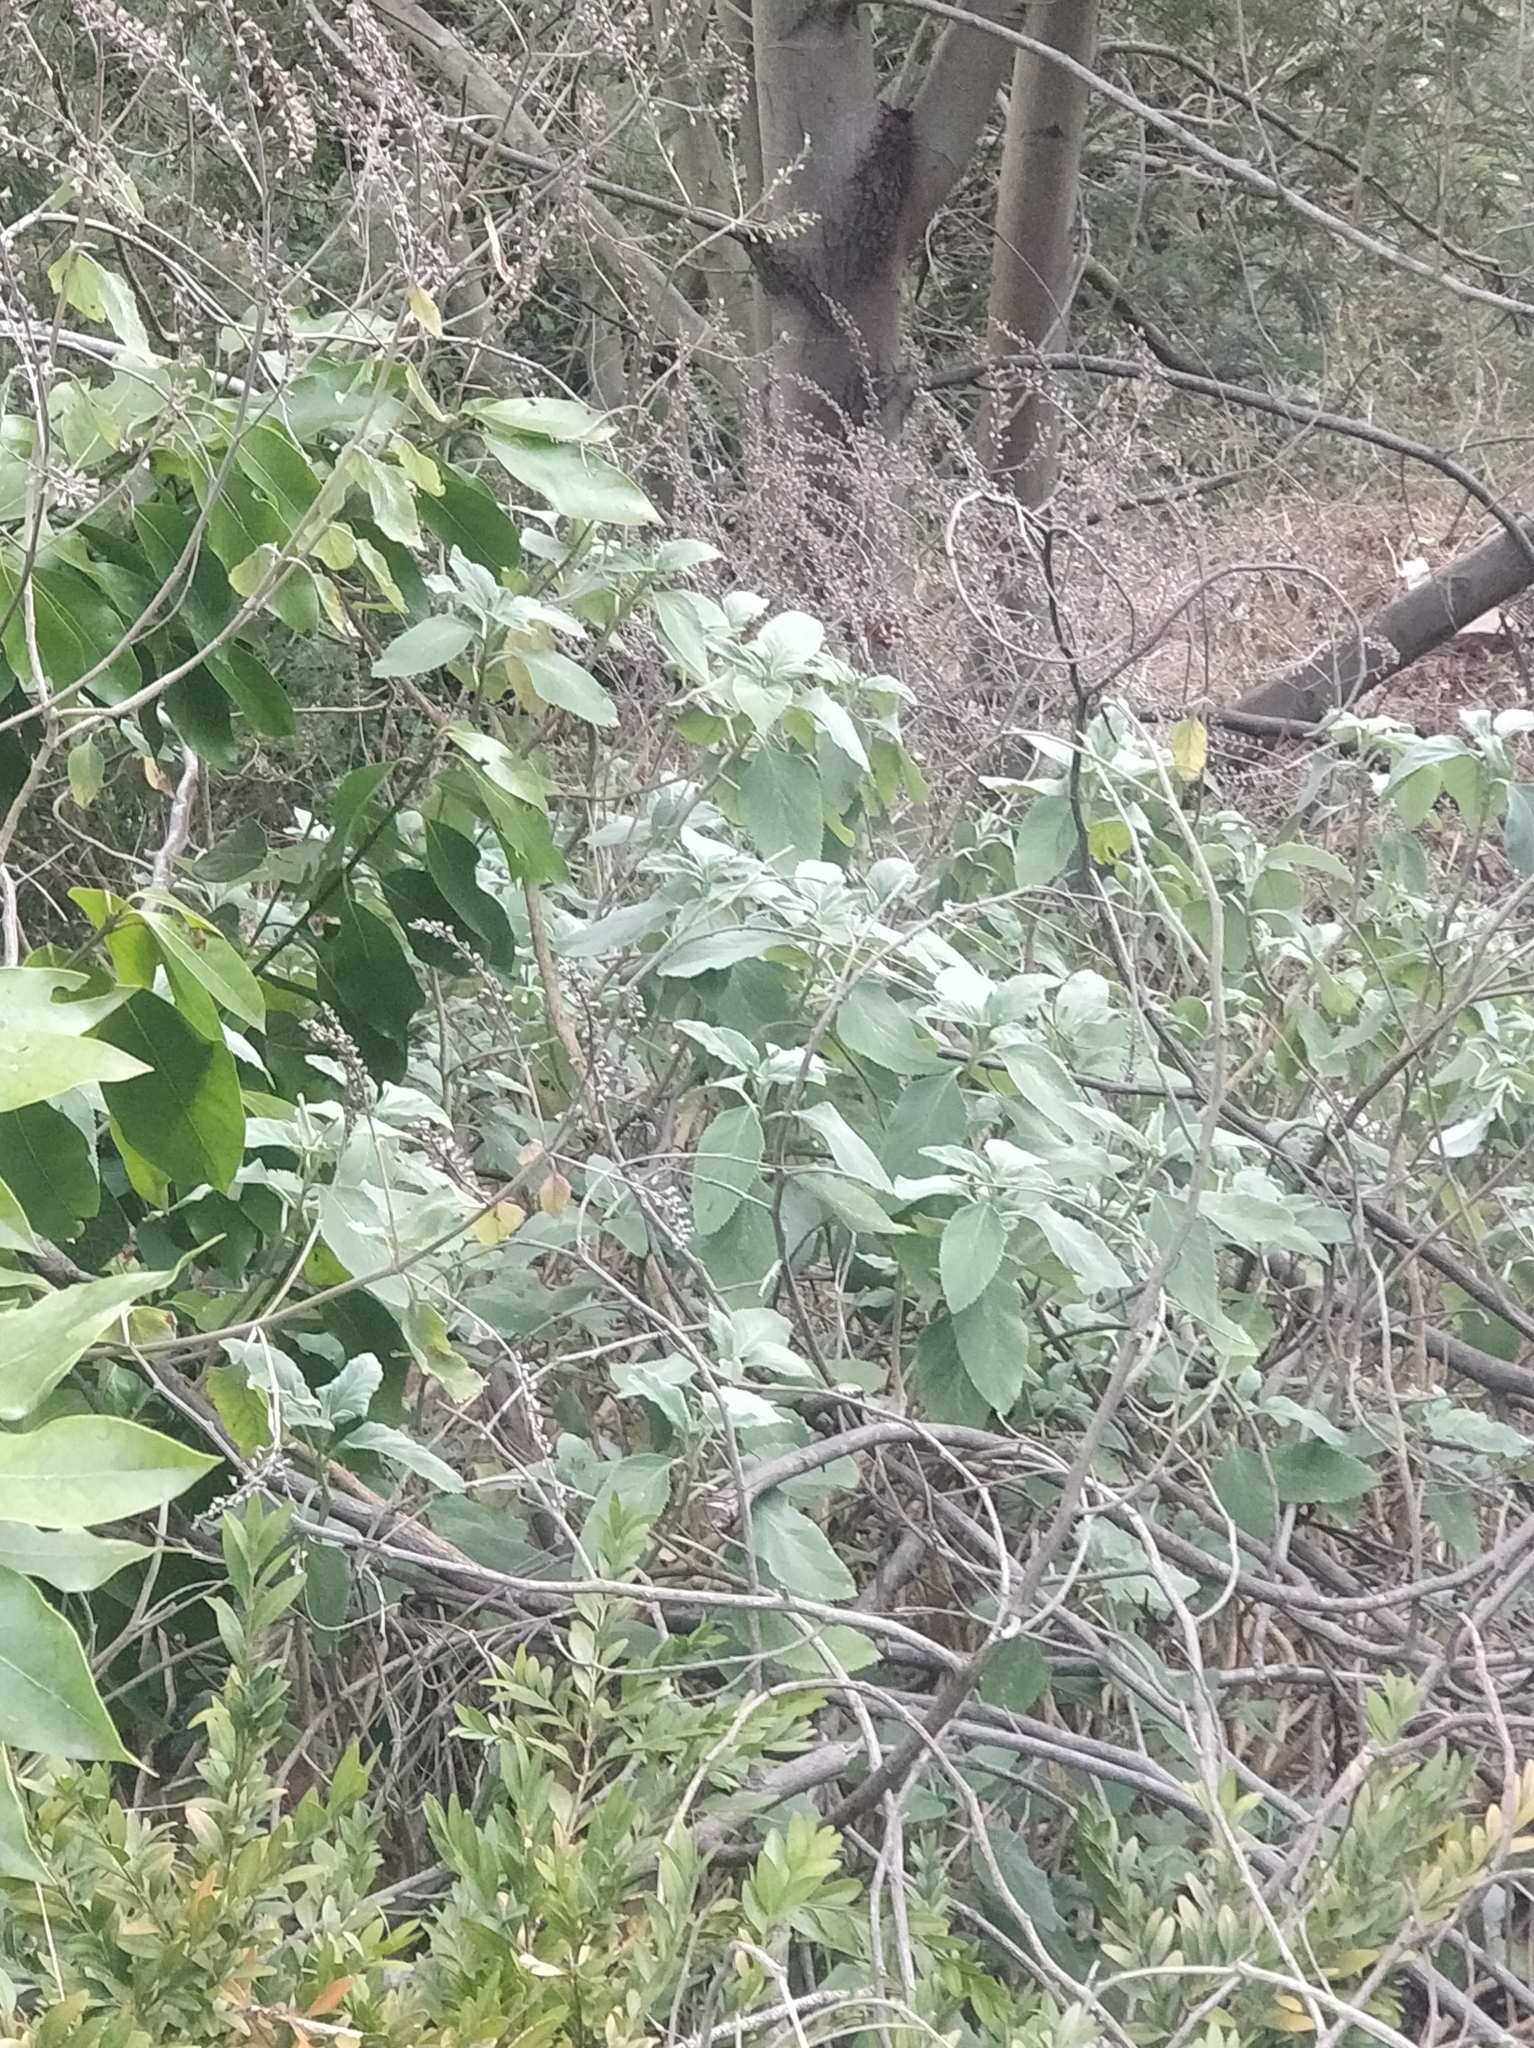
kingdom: Plantae
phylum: Tracheophyta
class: Magnoliopsida
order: Lamiales
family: Lamiaceae
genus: Teucrium
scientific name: Teucrium betonicum
